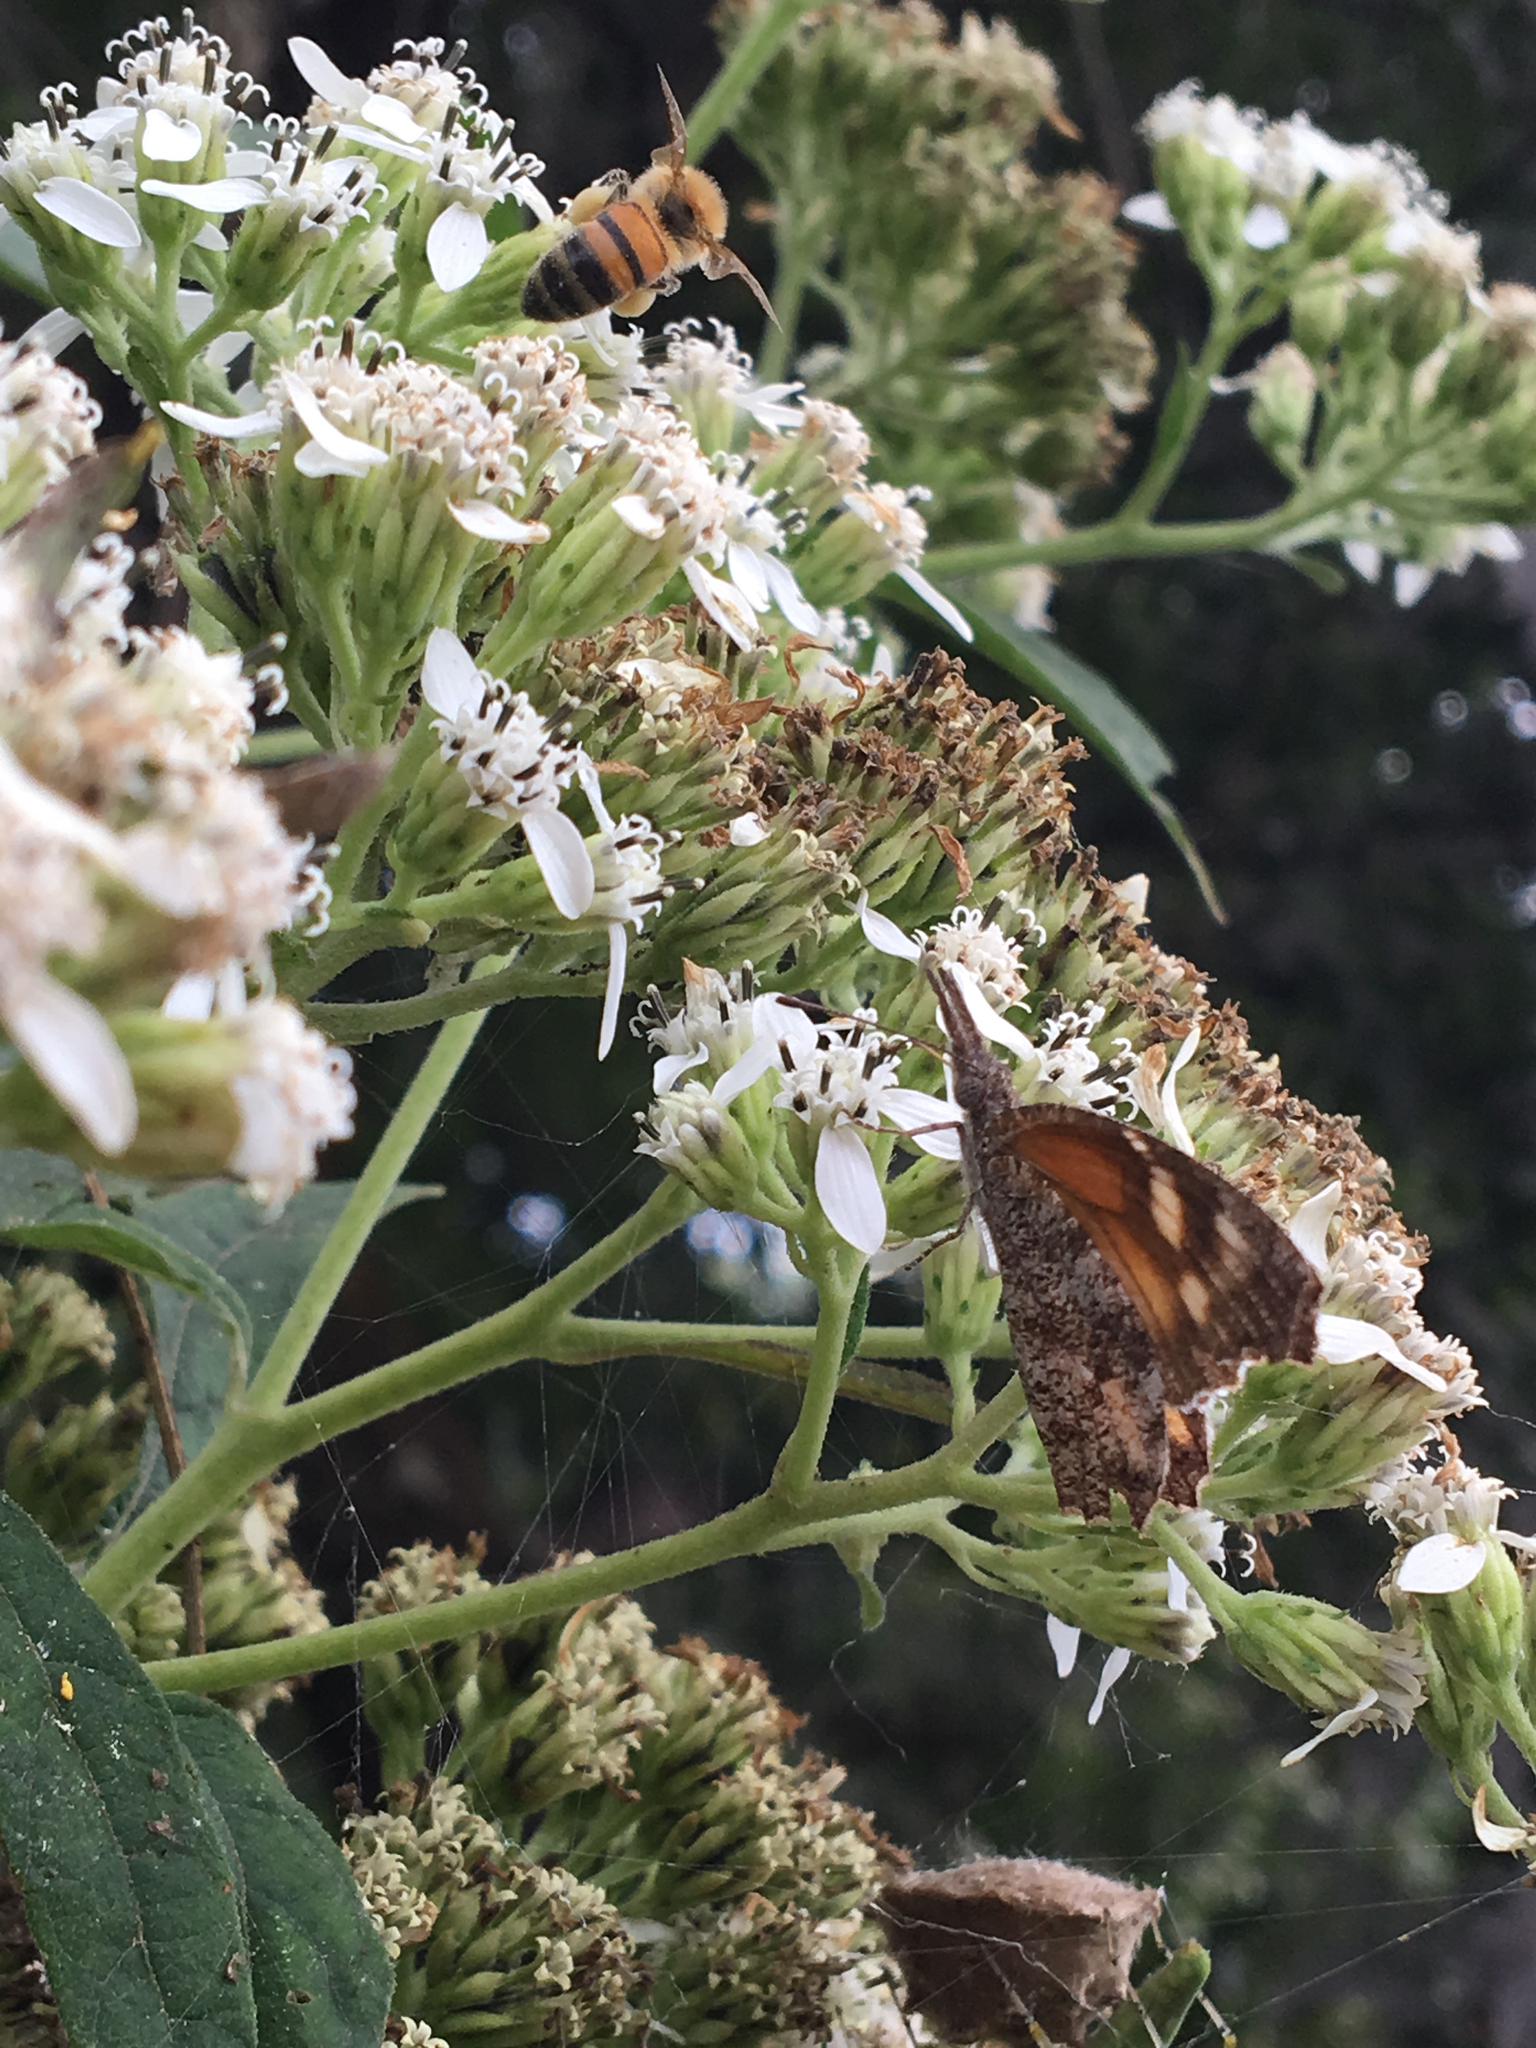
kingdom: Animalia
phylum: Arthropoda
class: Insecta
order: Lepidoptera
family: Nymphalidae
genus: Libytheana
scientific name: Libytheana carinenta
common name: American snout
